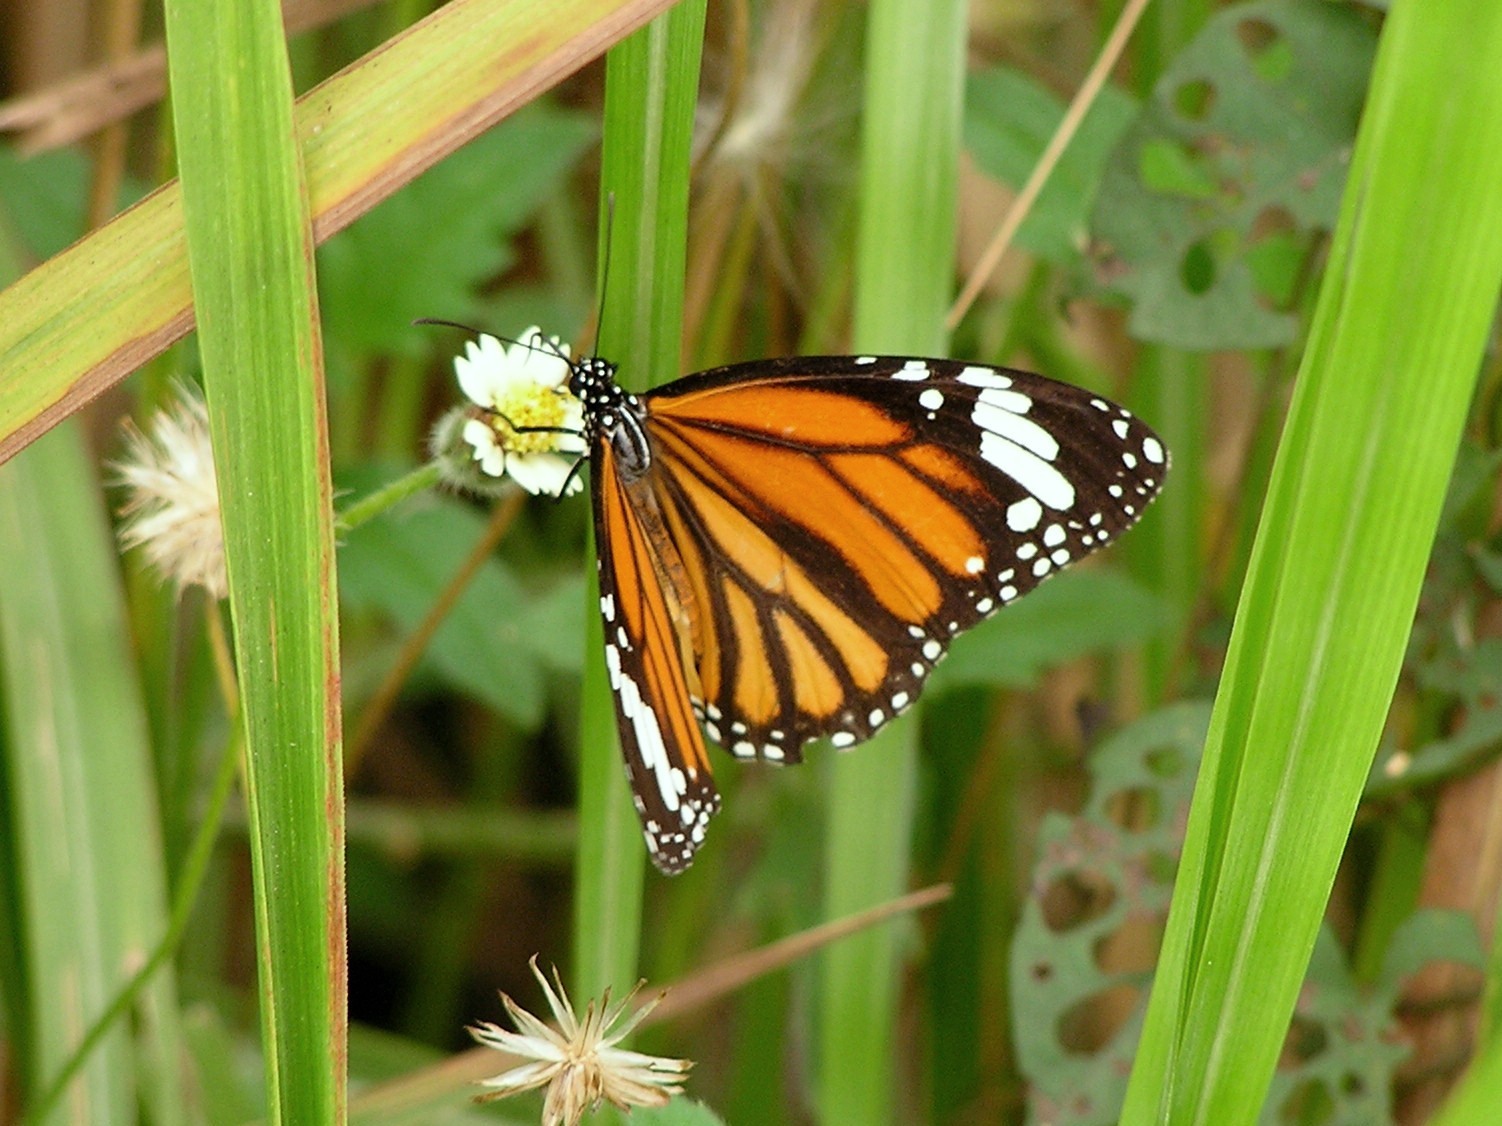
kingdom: Animalia
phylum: Arthropoda
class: Insecta
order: Lepidoptera
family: Nymphalidae
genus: Danaus
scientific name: Danaus genutia
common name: Common tiger butterfly
